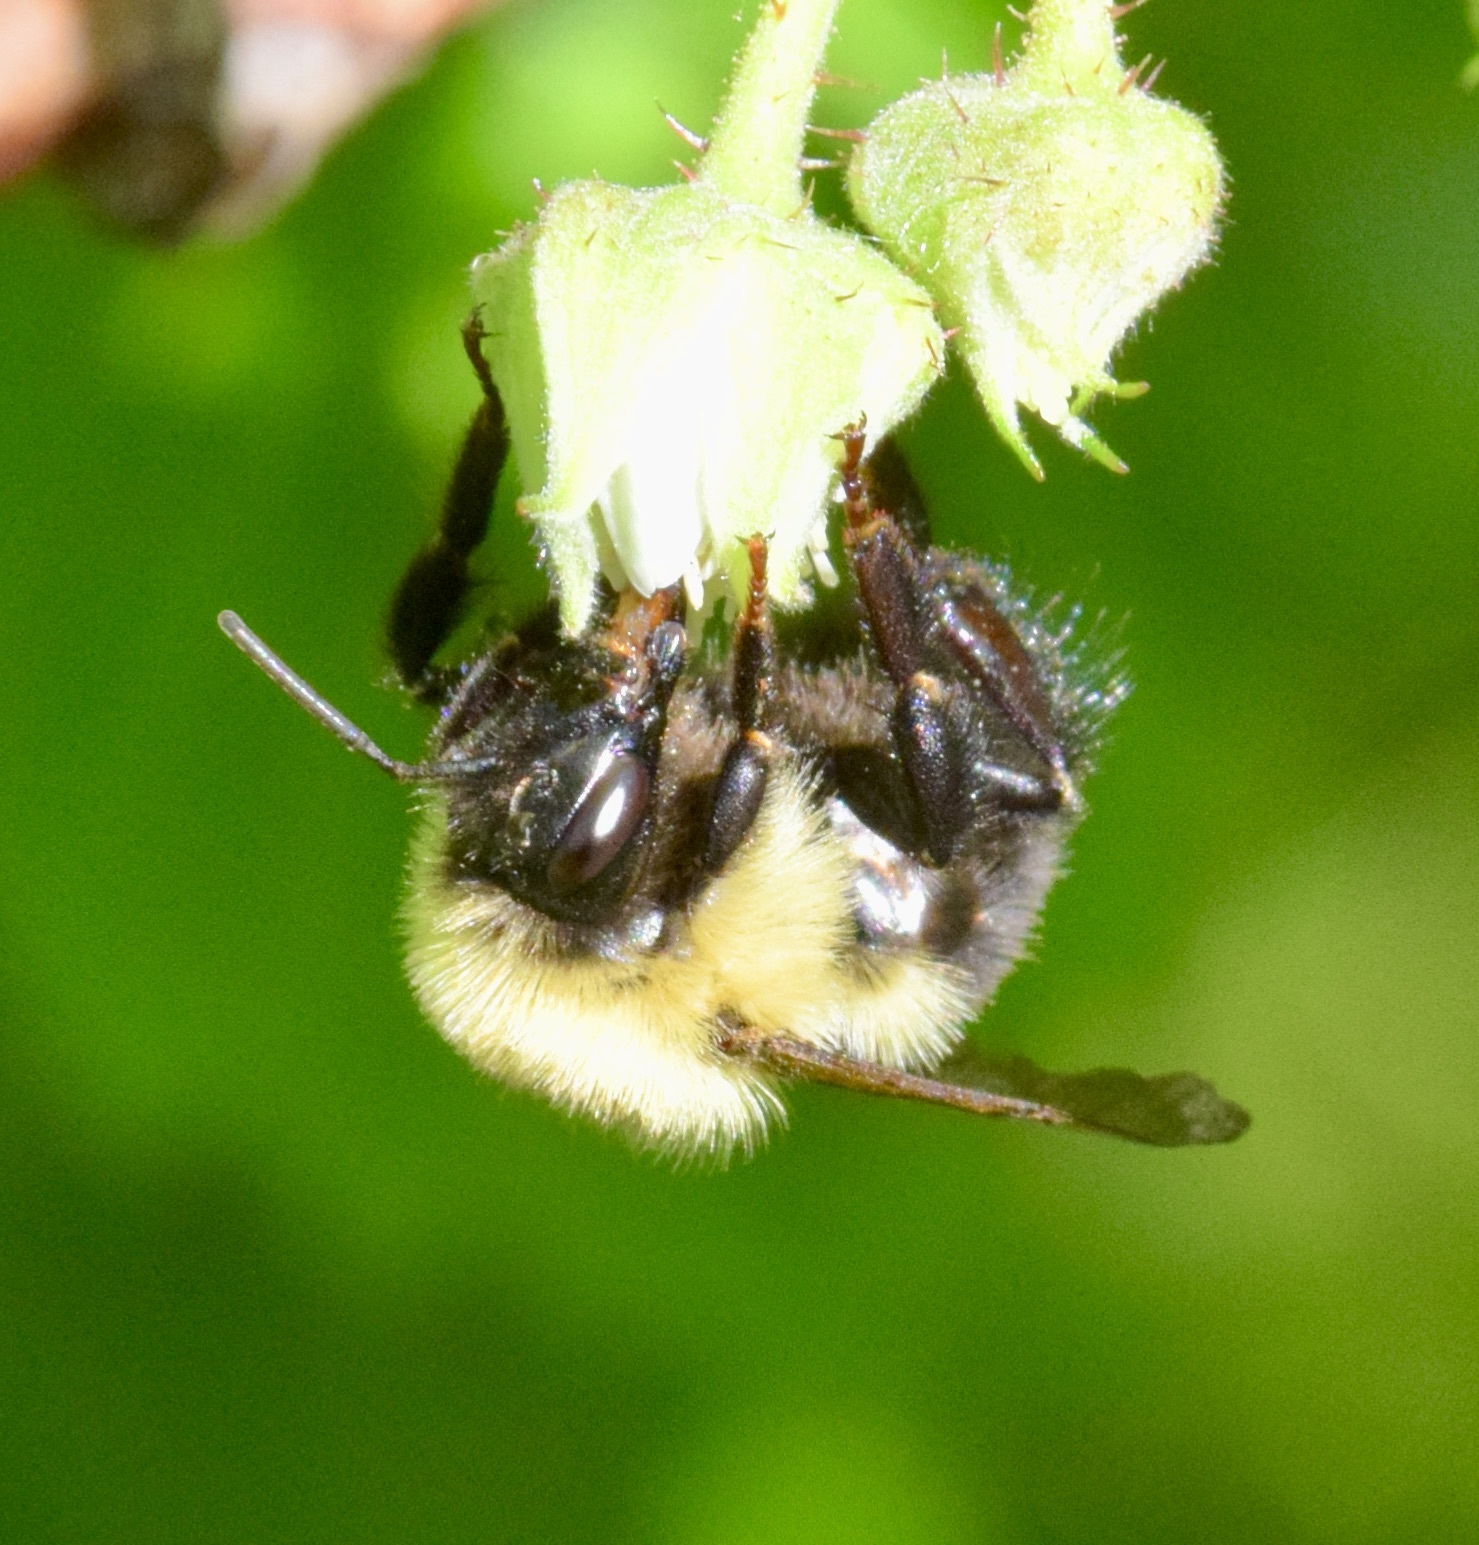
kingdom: Animalia
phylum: Arthropoda
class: Insecta
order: Hymenoptera
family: Apidae
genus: Bombus
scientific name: Bombus bimaculatus
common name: Two-spotted bumble bee
